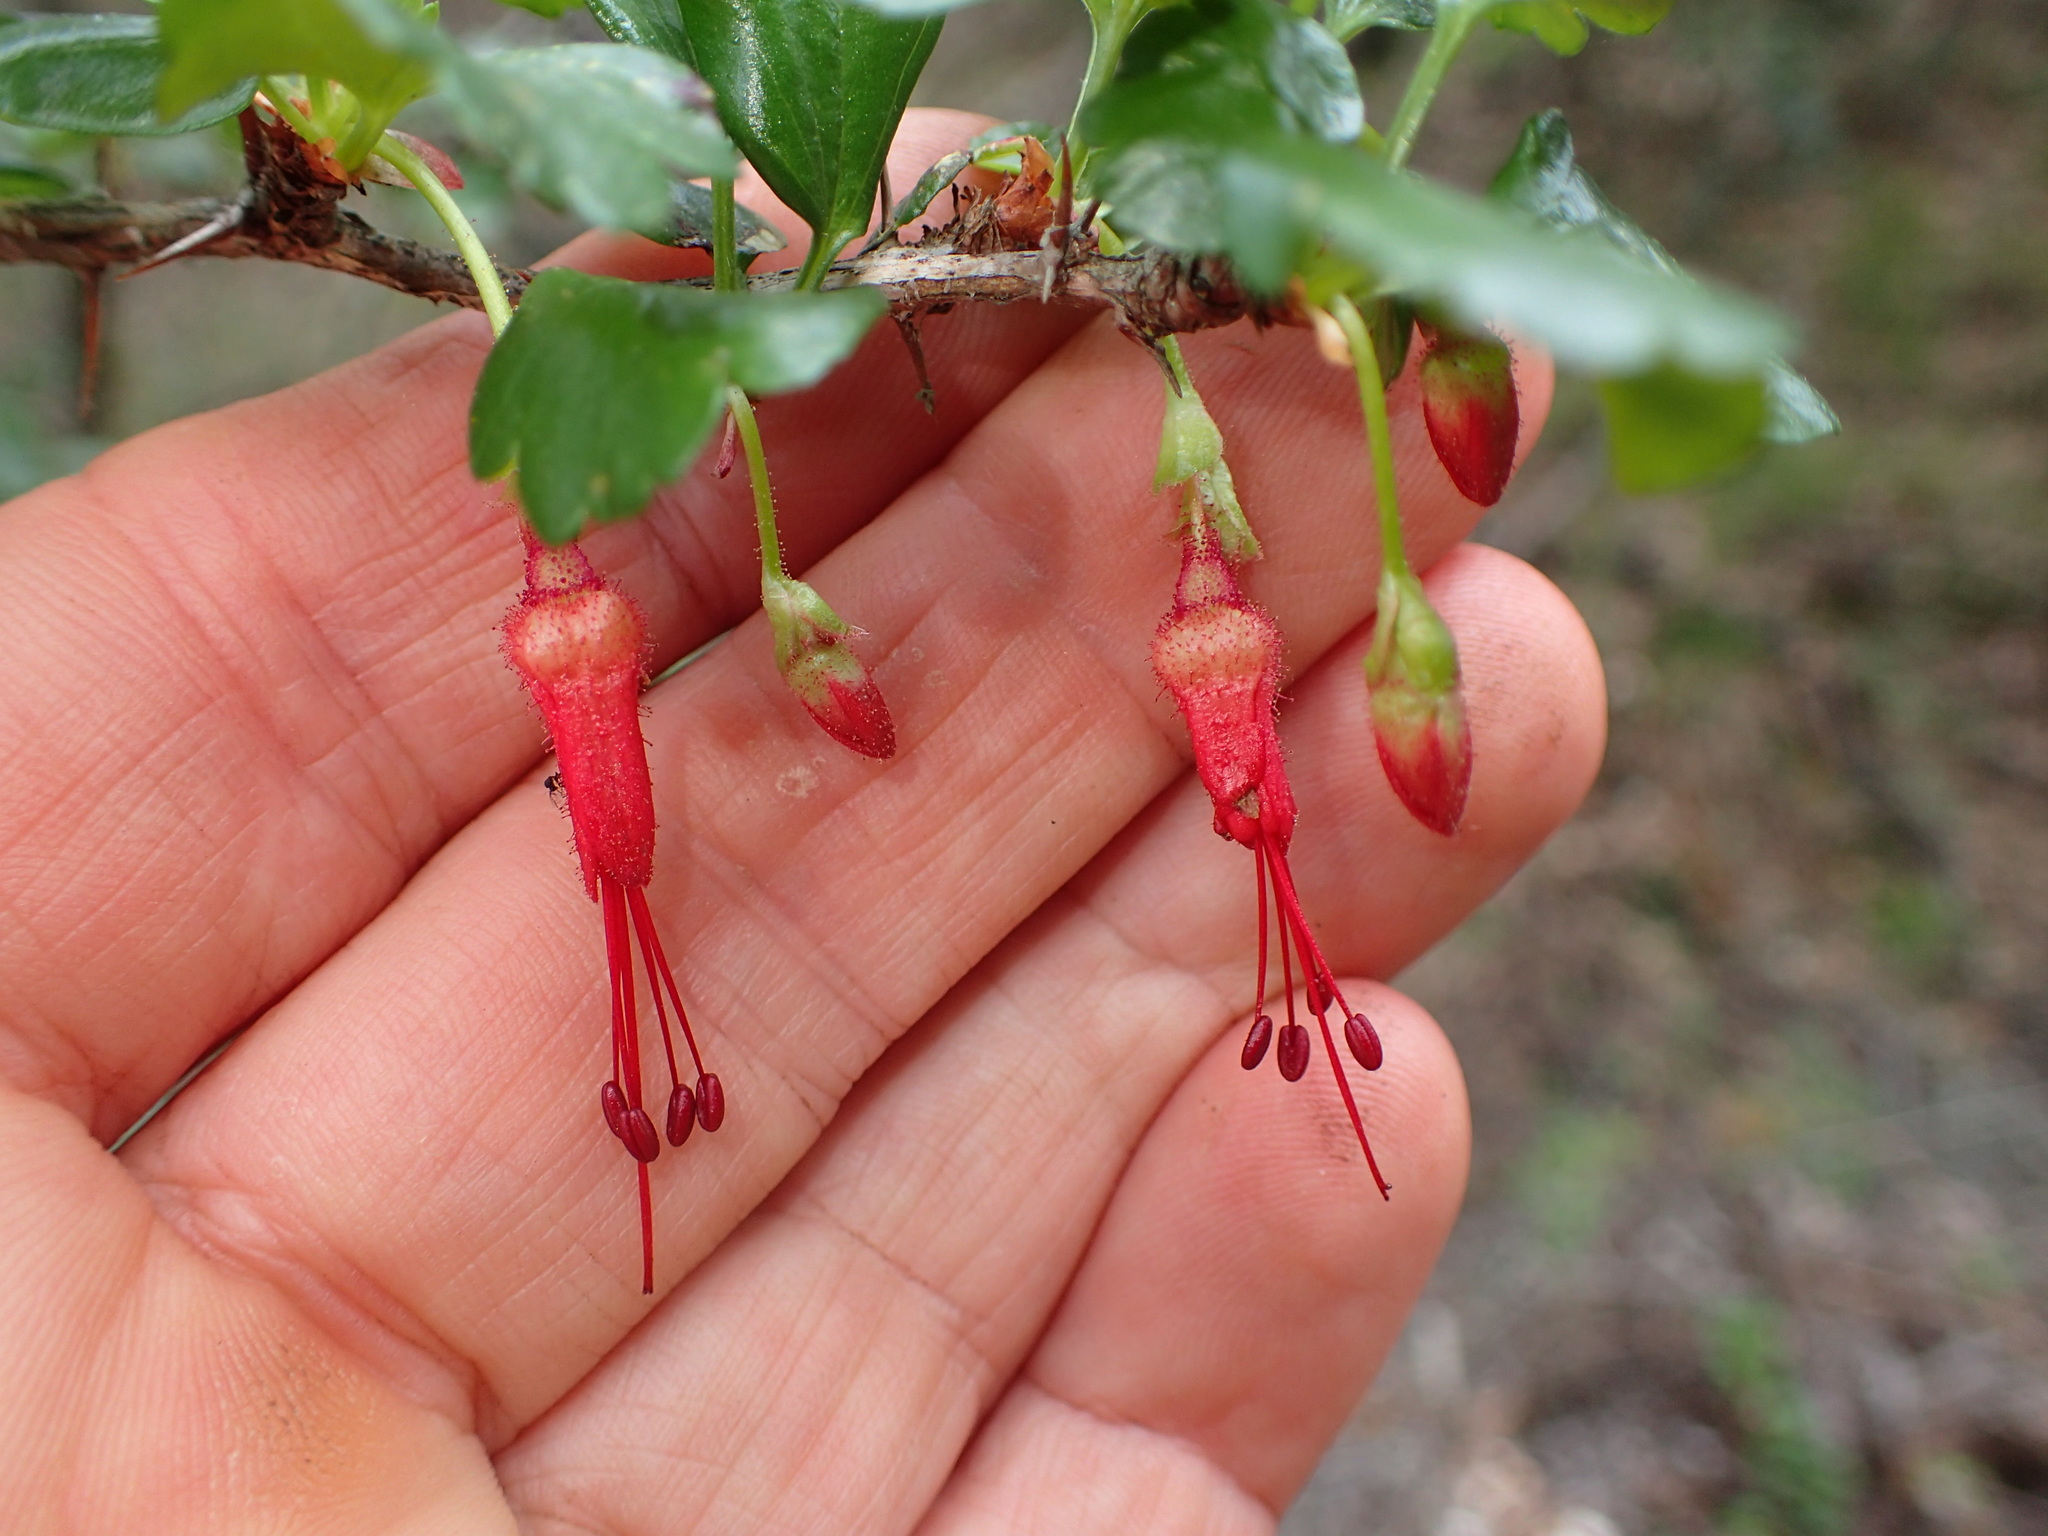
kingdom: Plantae
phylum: Tracheophyta
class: Magnoliopsida
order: Saxifragales
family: Grossulariaceae
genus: Ribes
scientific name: Ribes speciosum
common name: Fuchsia-flower gooseberry
